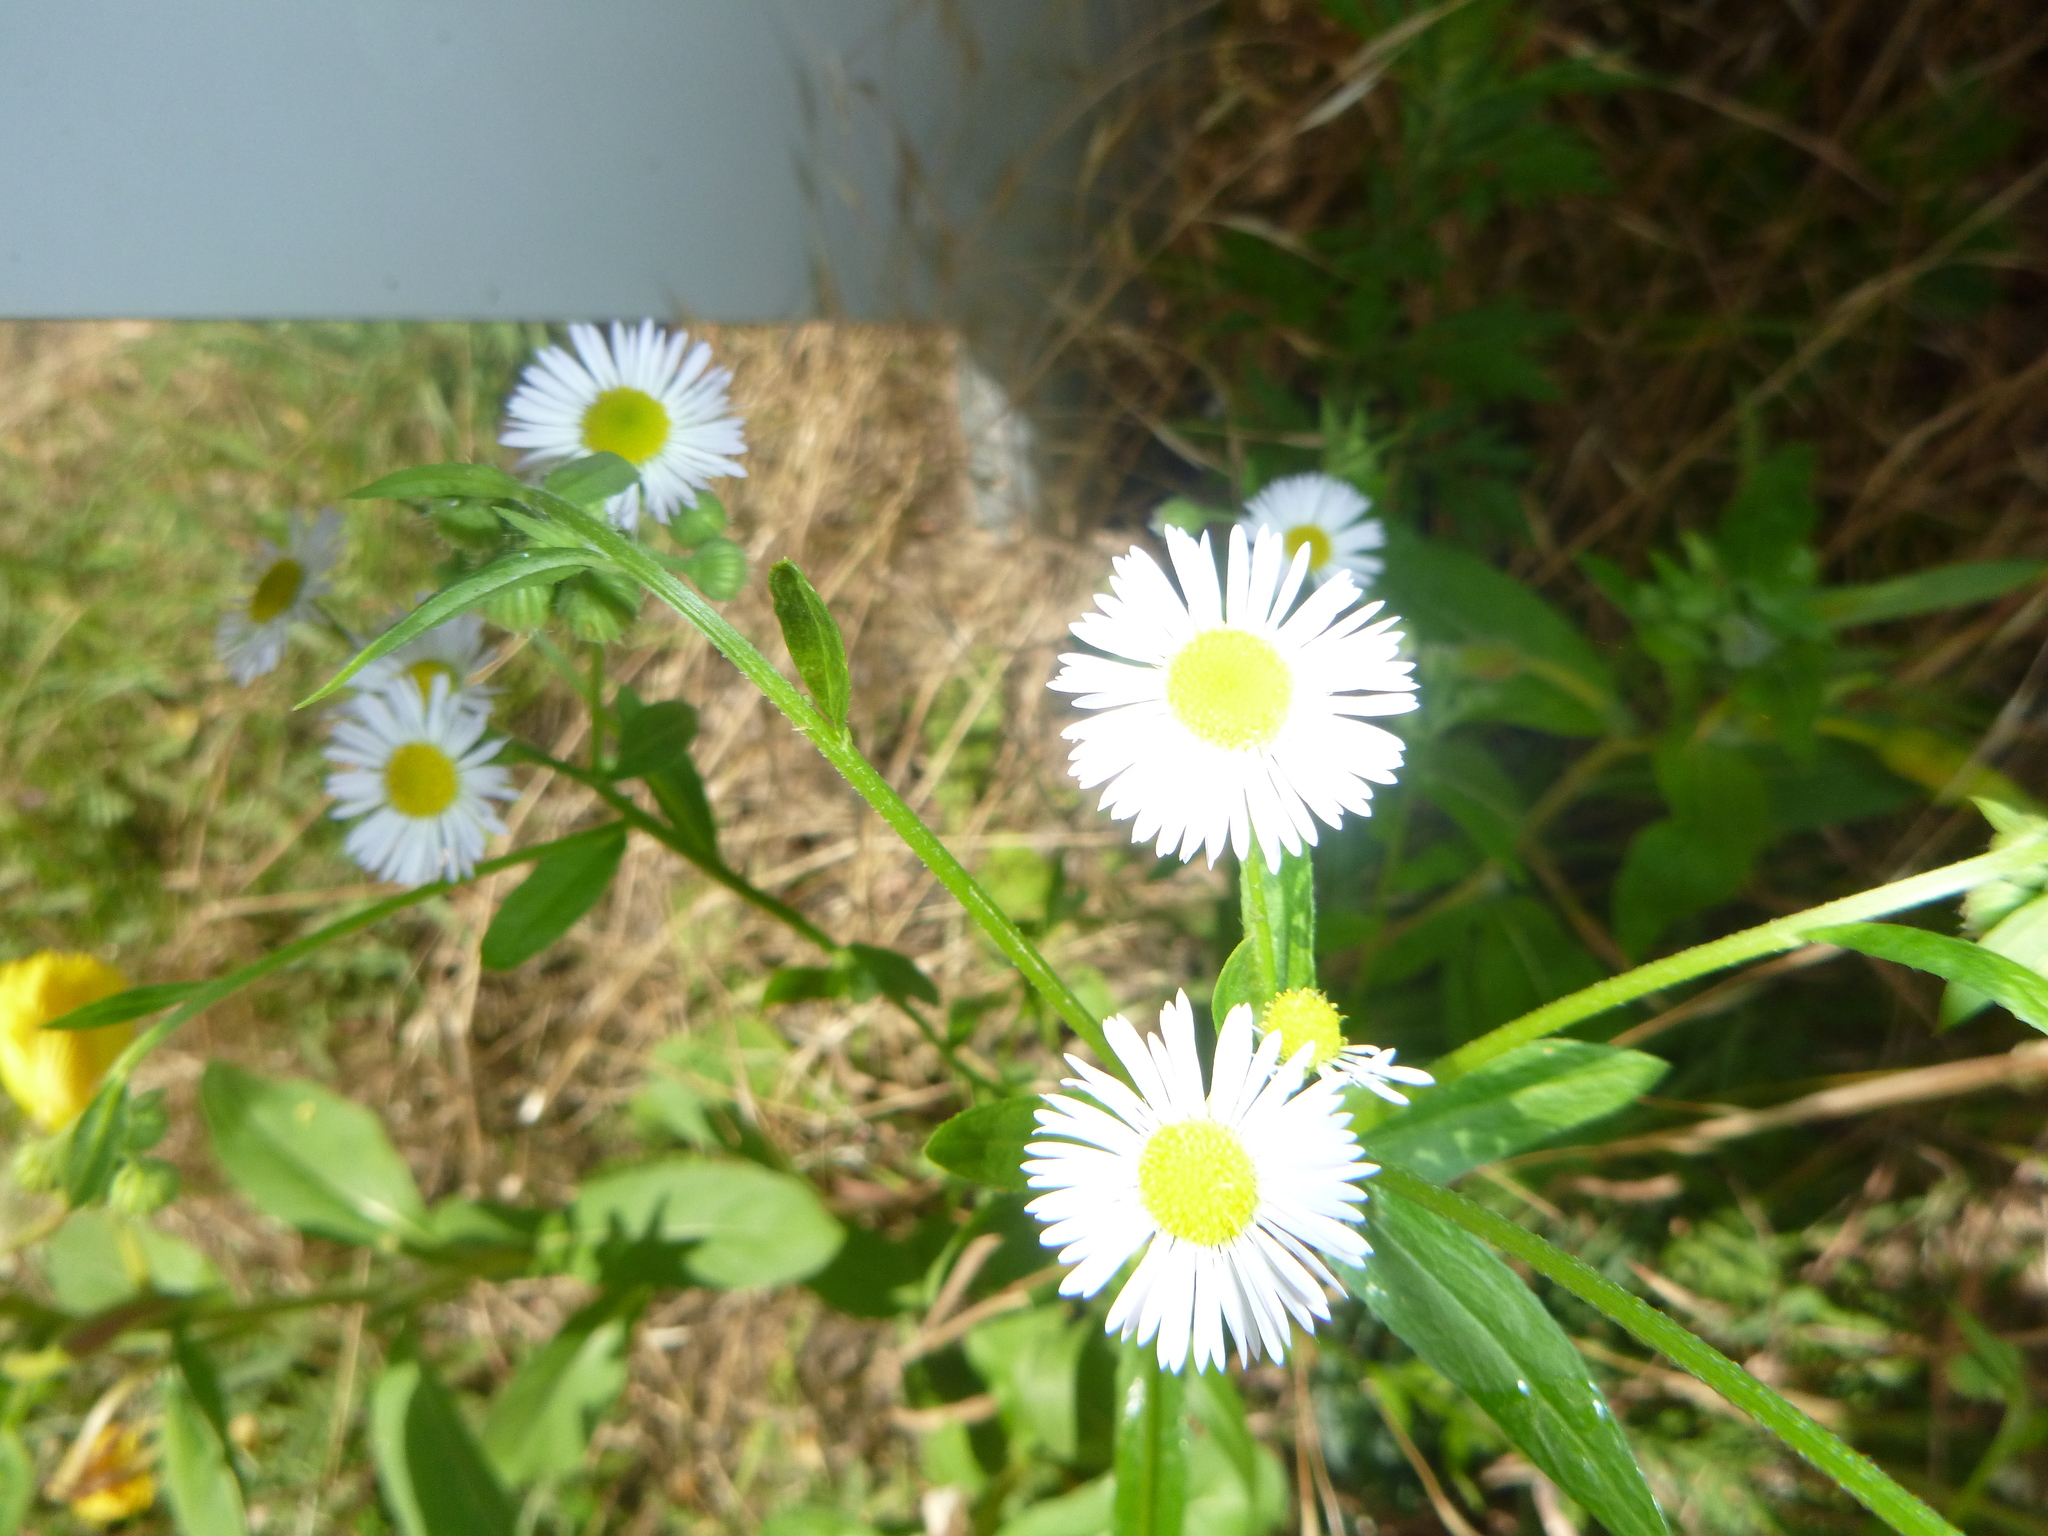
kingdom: Plantae
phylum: Tracheophyta
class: Magnoliopsida
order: Asterales
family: Asteraceae
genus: Erigeron
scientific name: Erigeron annuus
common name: Tall fleabane
